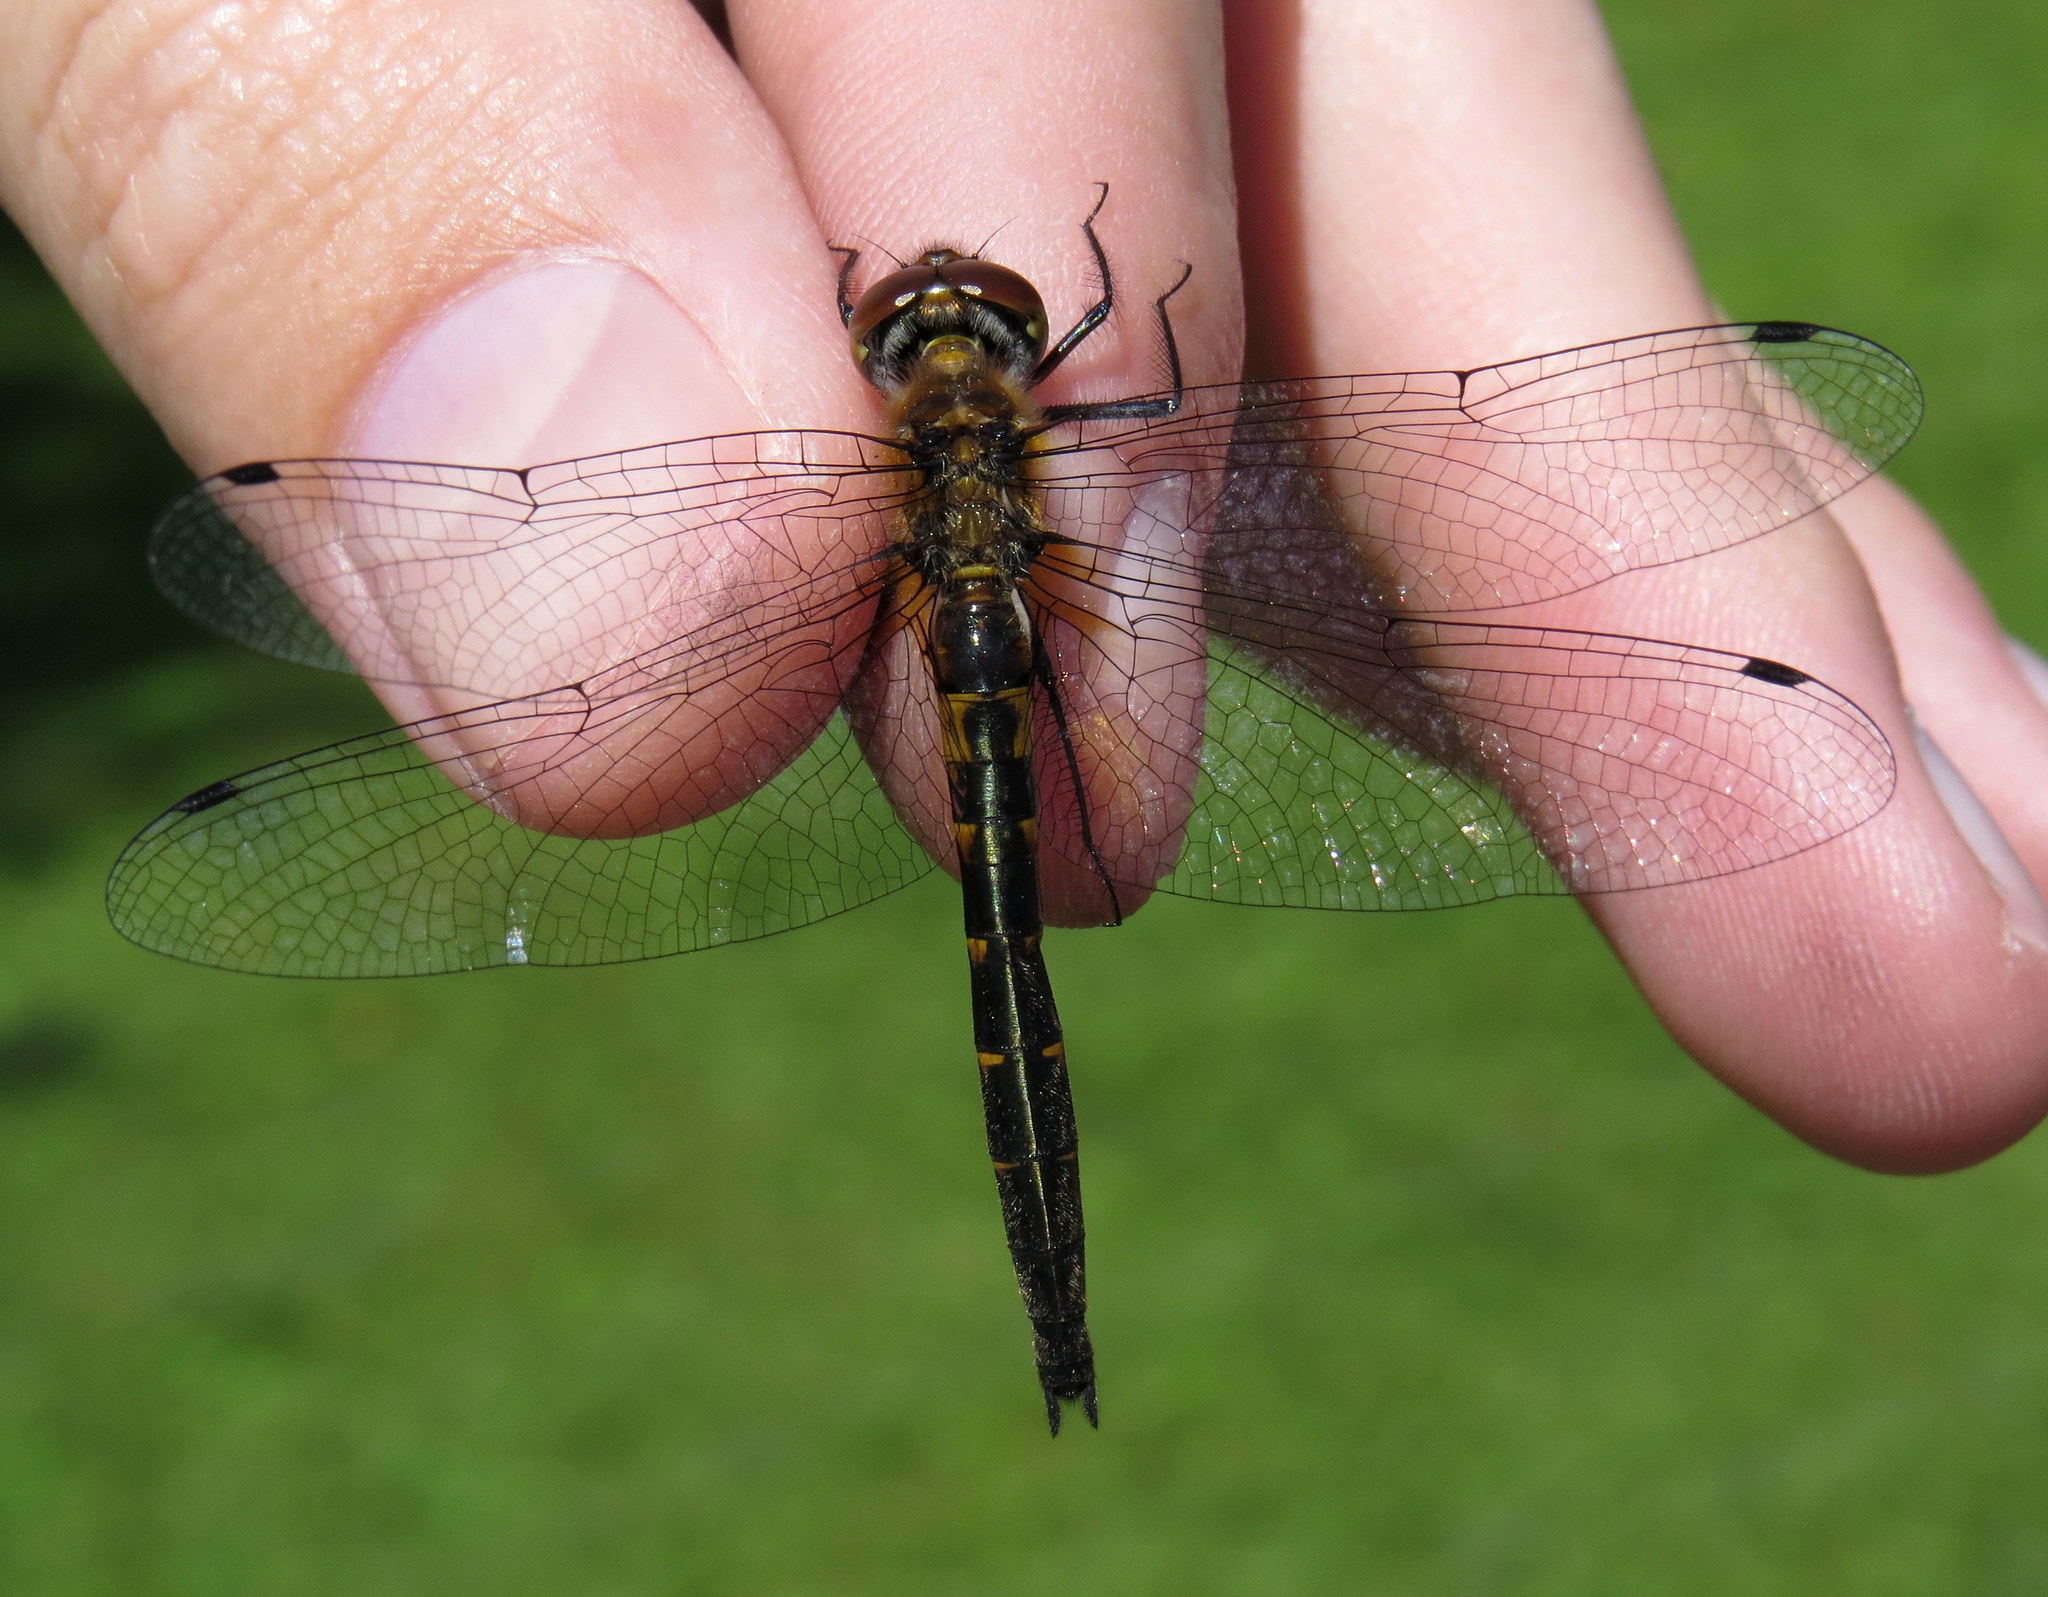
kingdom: Animalia
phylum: Arthropoda
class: Insecta
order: Odonata
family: Corduliidae
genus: Dorocordulia
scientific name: Dorocordulia lepida
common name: Petite emerald
